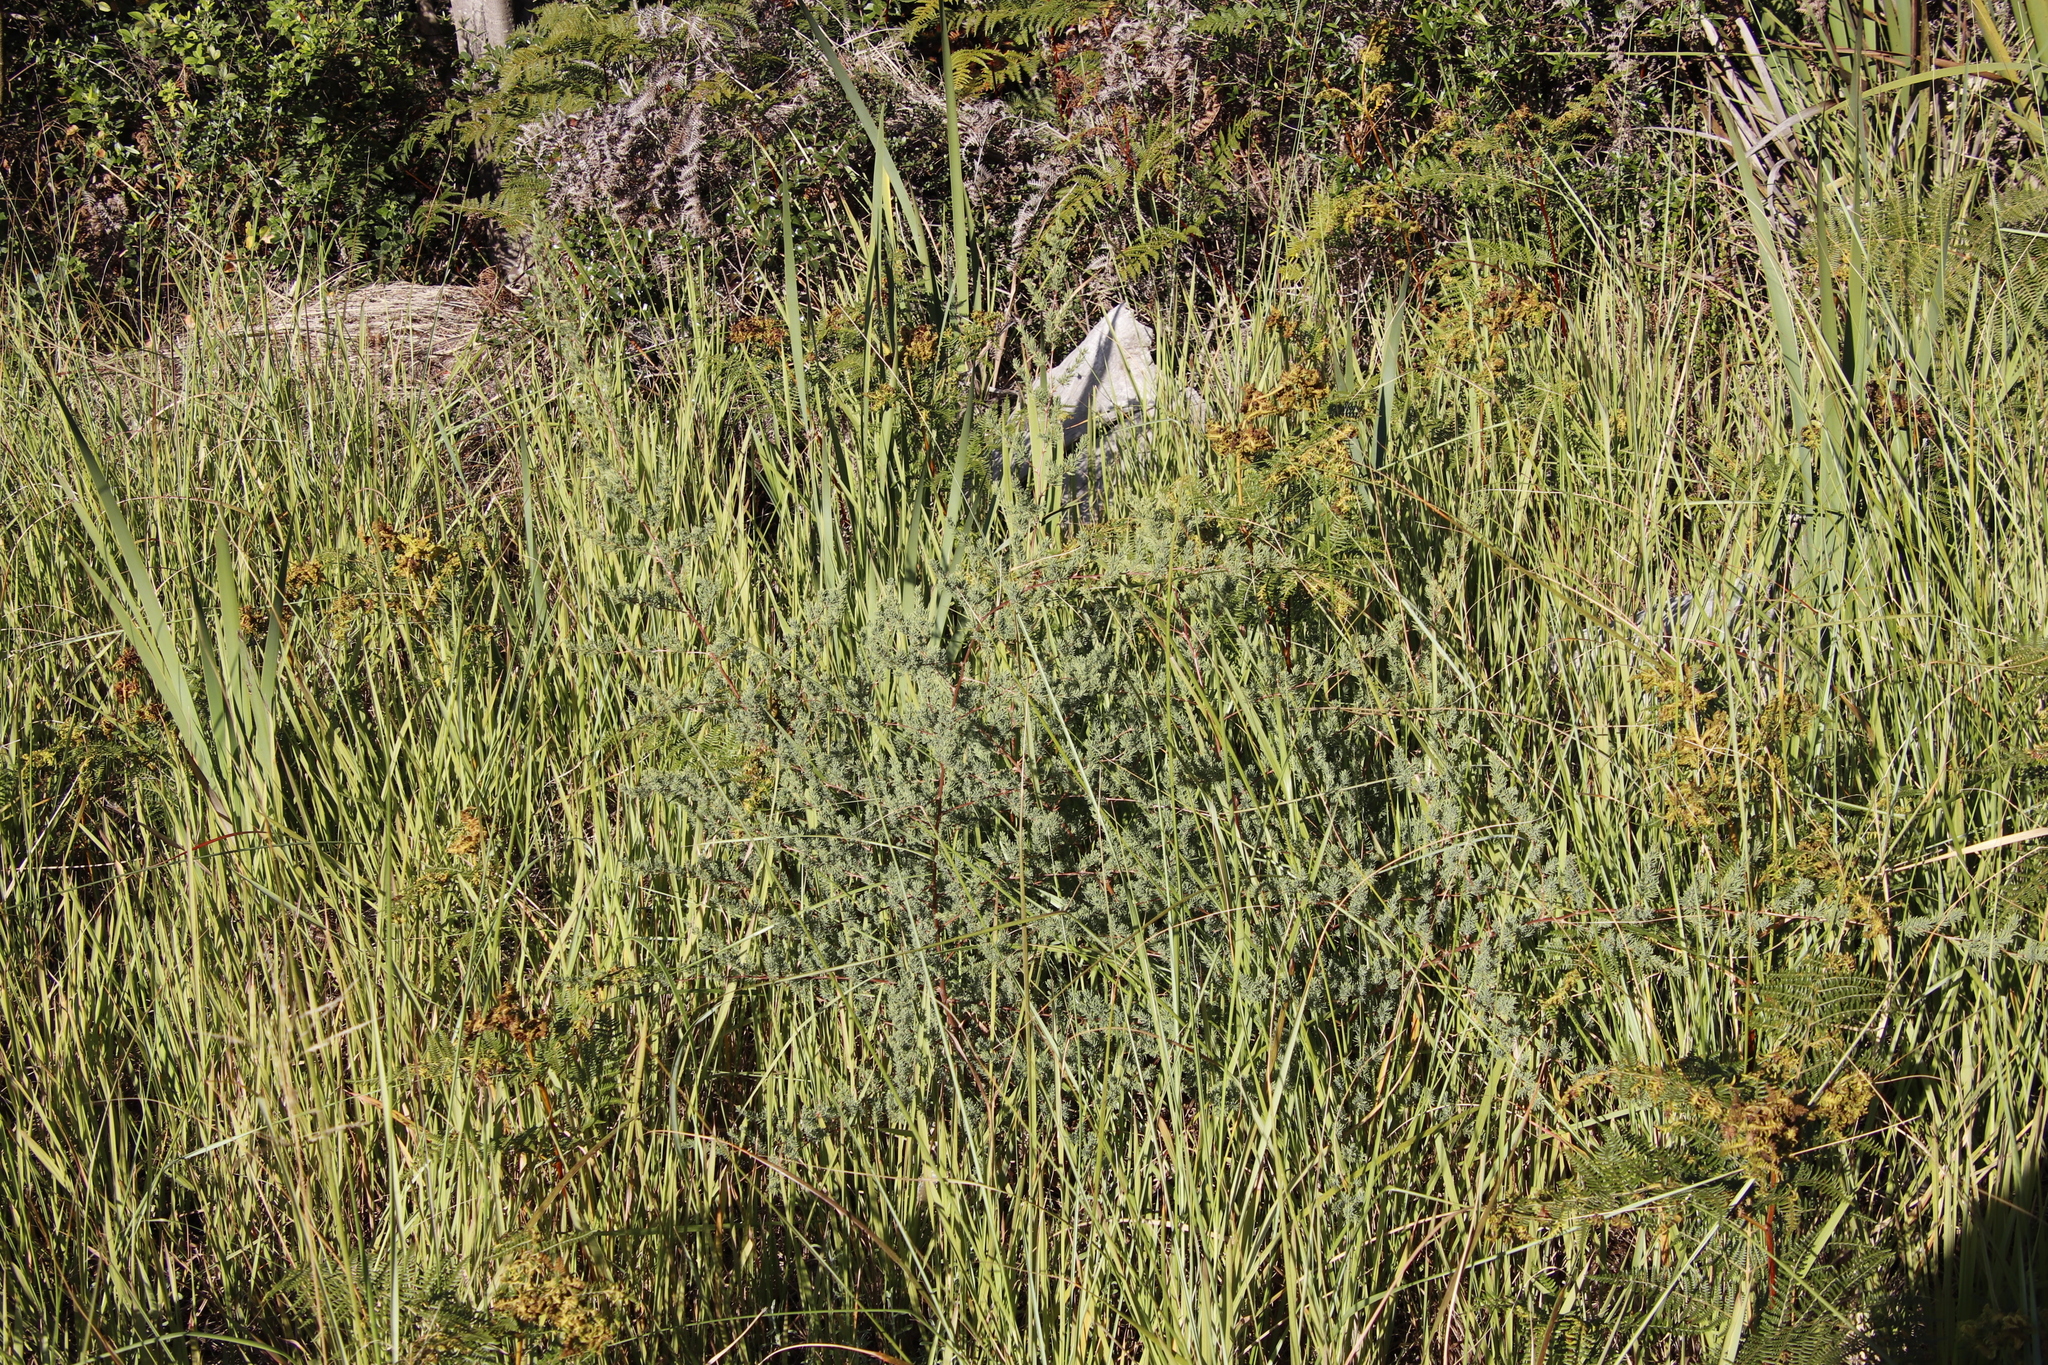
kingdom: Plantae
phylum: Tracheophyta
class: Liliopsida
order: Asparagales
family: Asparagaceae
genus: Asparagus
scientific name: Asparagus rubicundus
